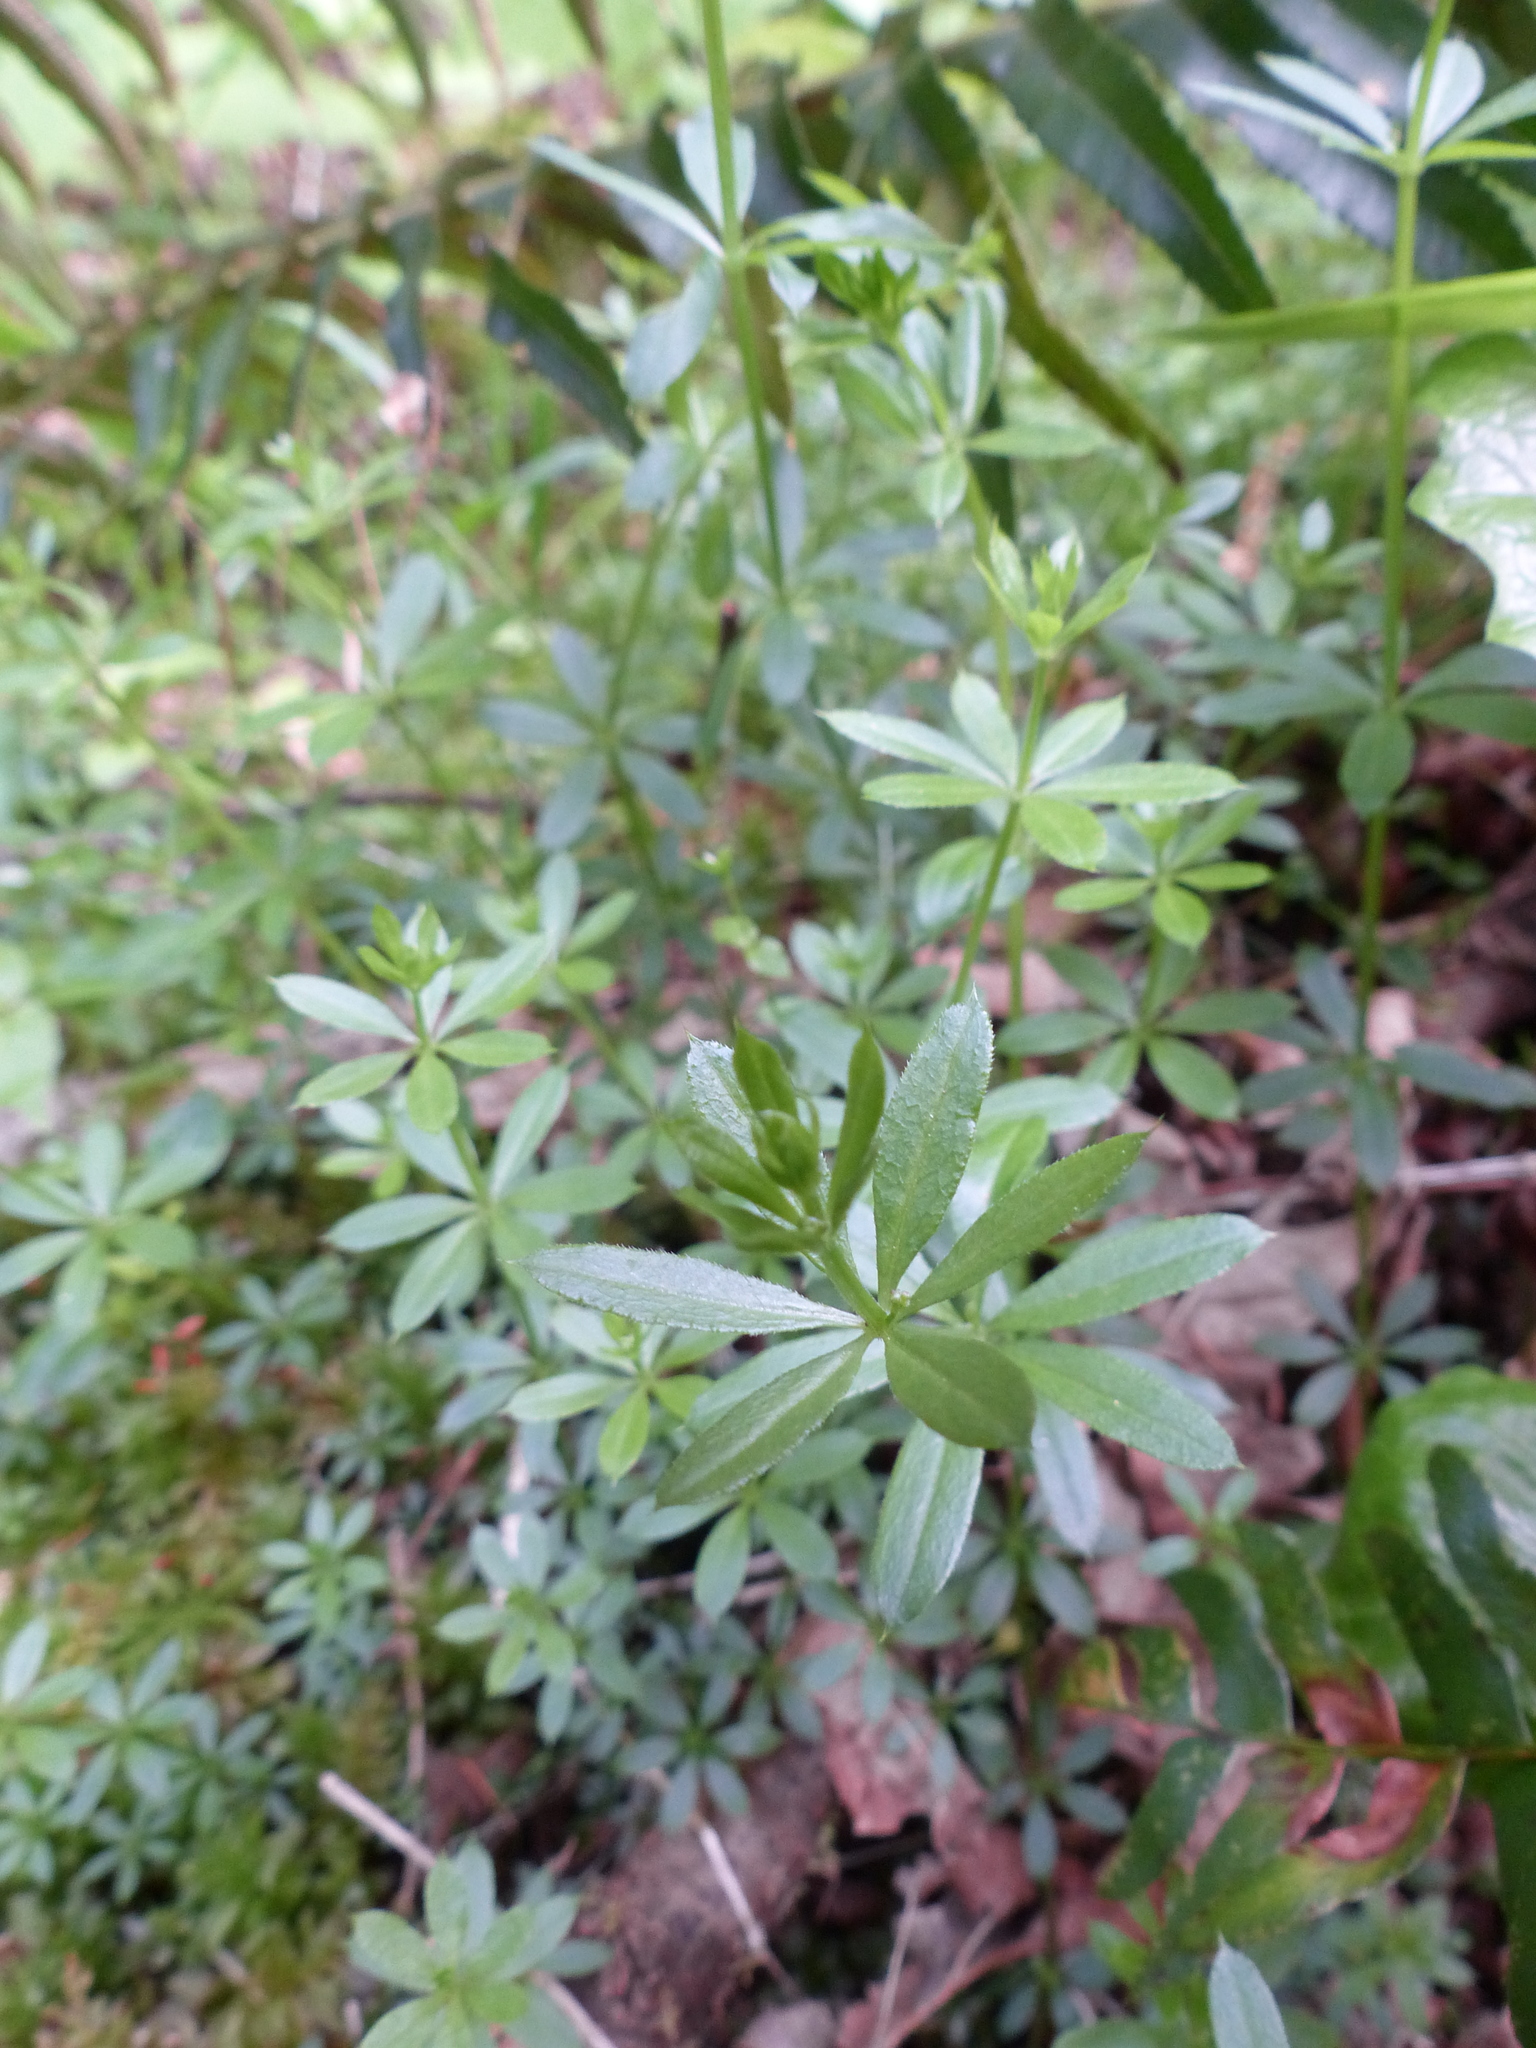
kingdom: Plantae
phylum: Tracheophyta
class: Magnoliopsida
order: Gentianales
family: Rubiaceae
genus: Galium
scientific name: Galium triflorum
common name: Fragrant bedstraw
